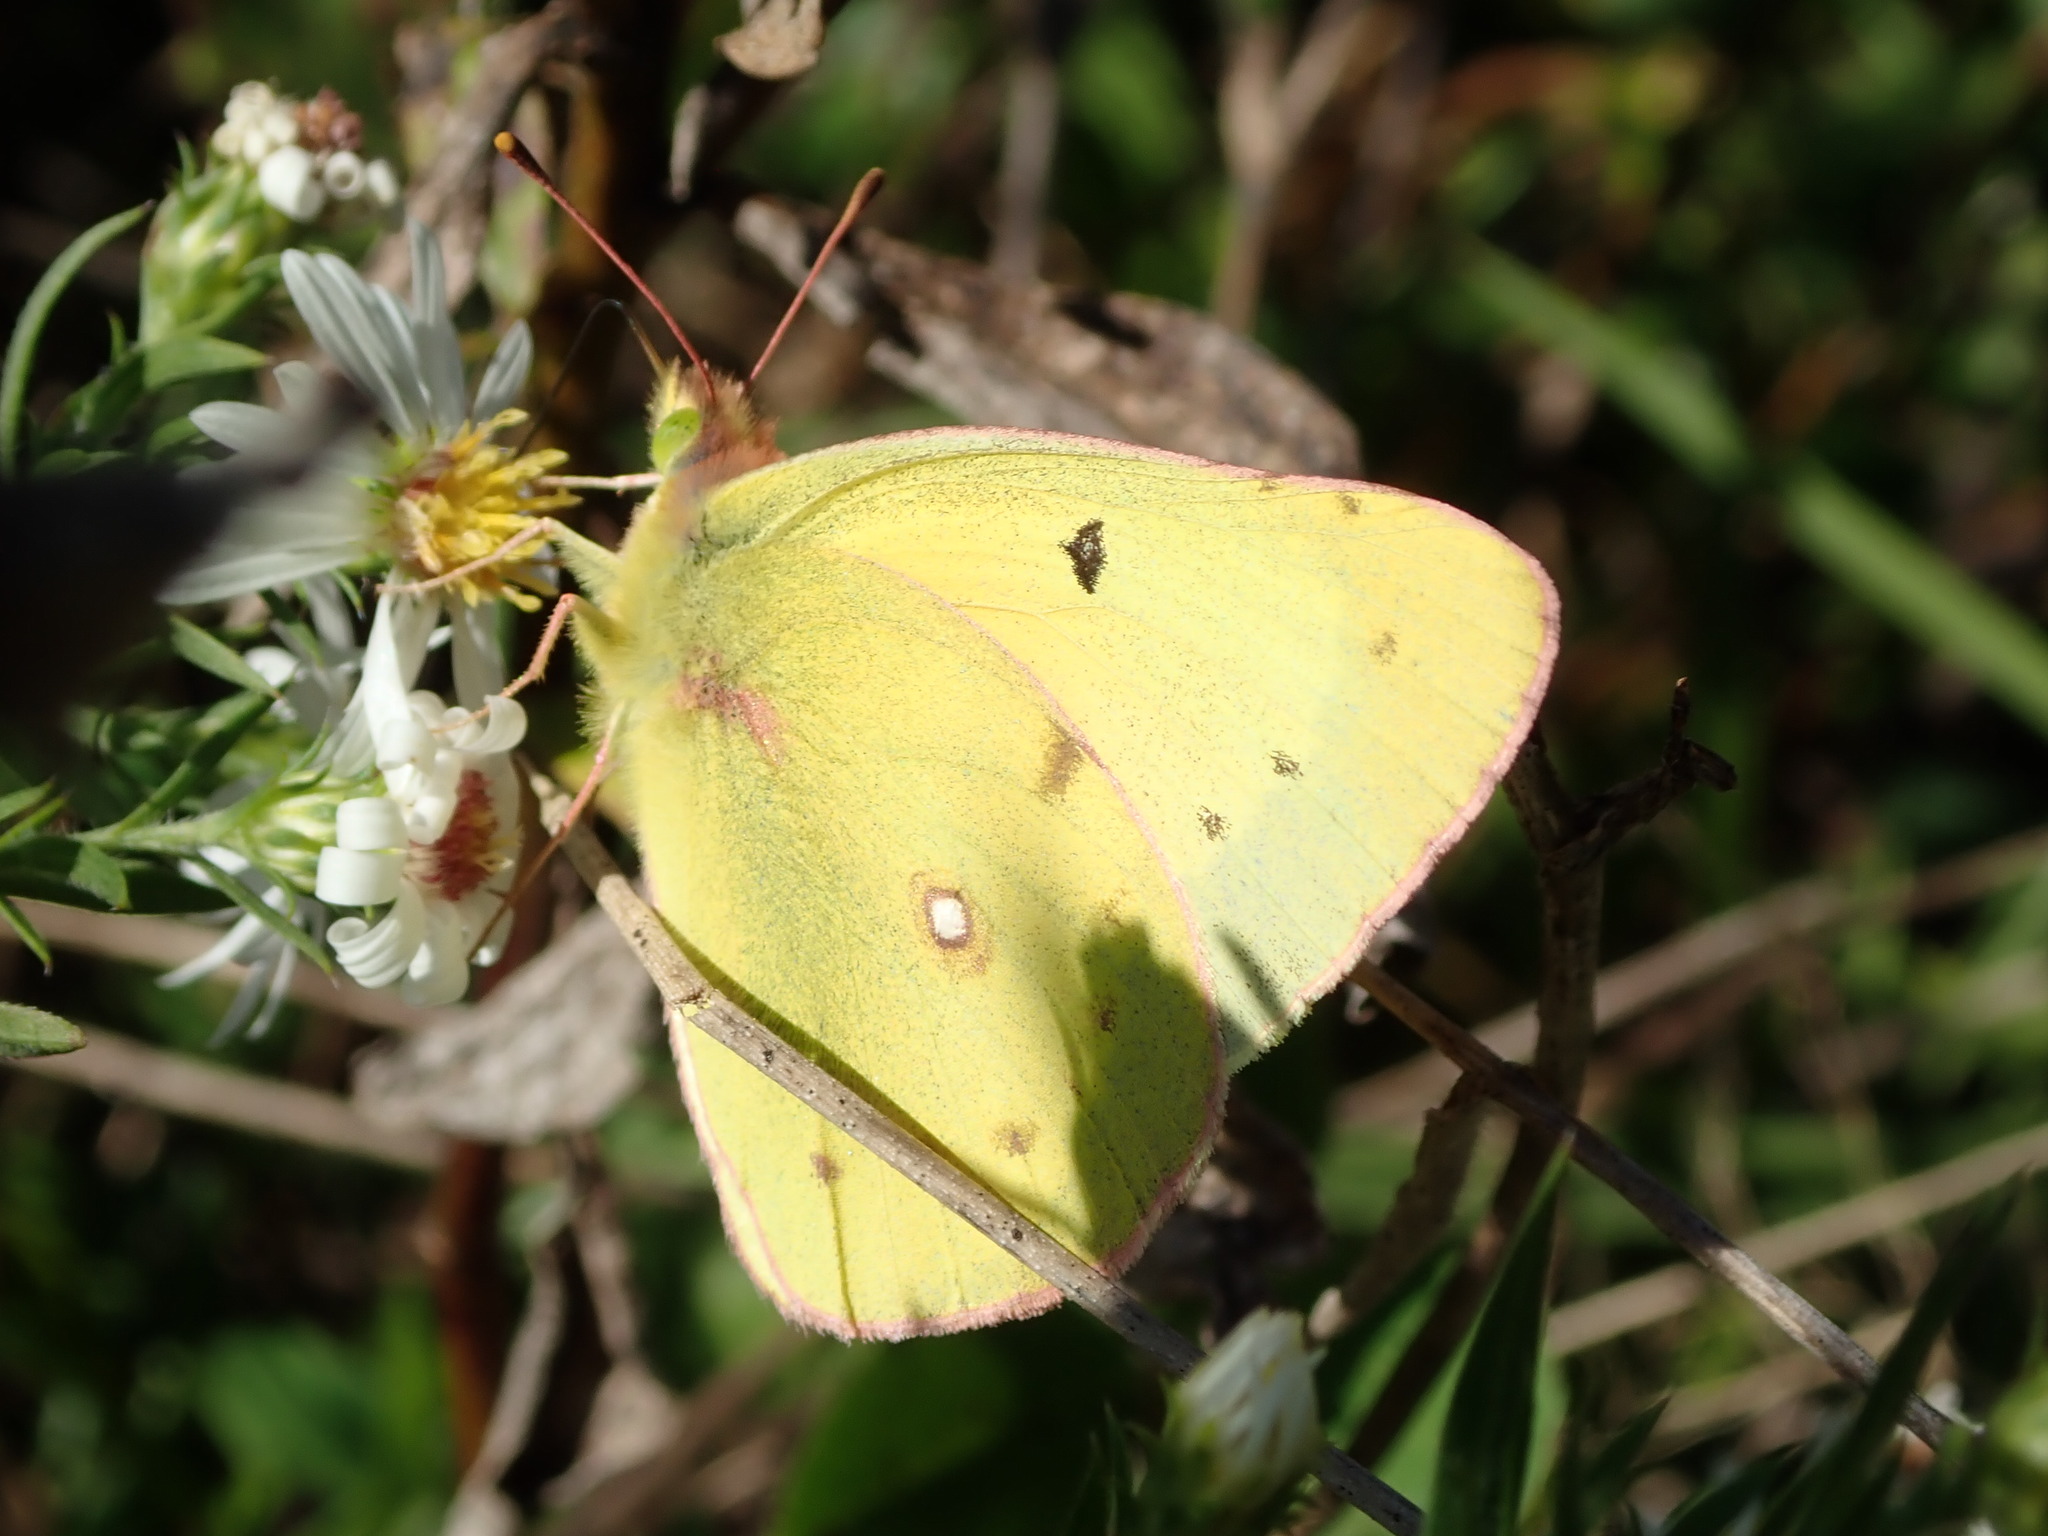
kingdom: Animalia
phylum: Arthropoda
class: Insecta
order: Lepidoptera
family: Pieridae
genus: Colias
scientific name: Colias eurytheme
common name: Alfalfa butterfly
